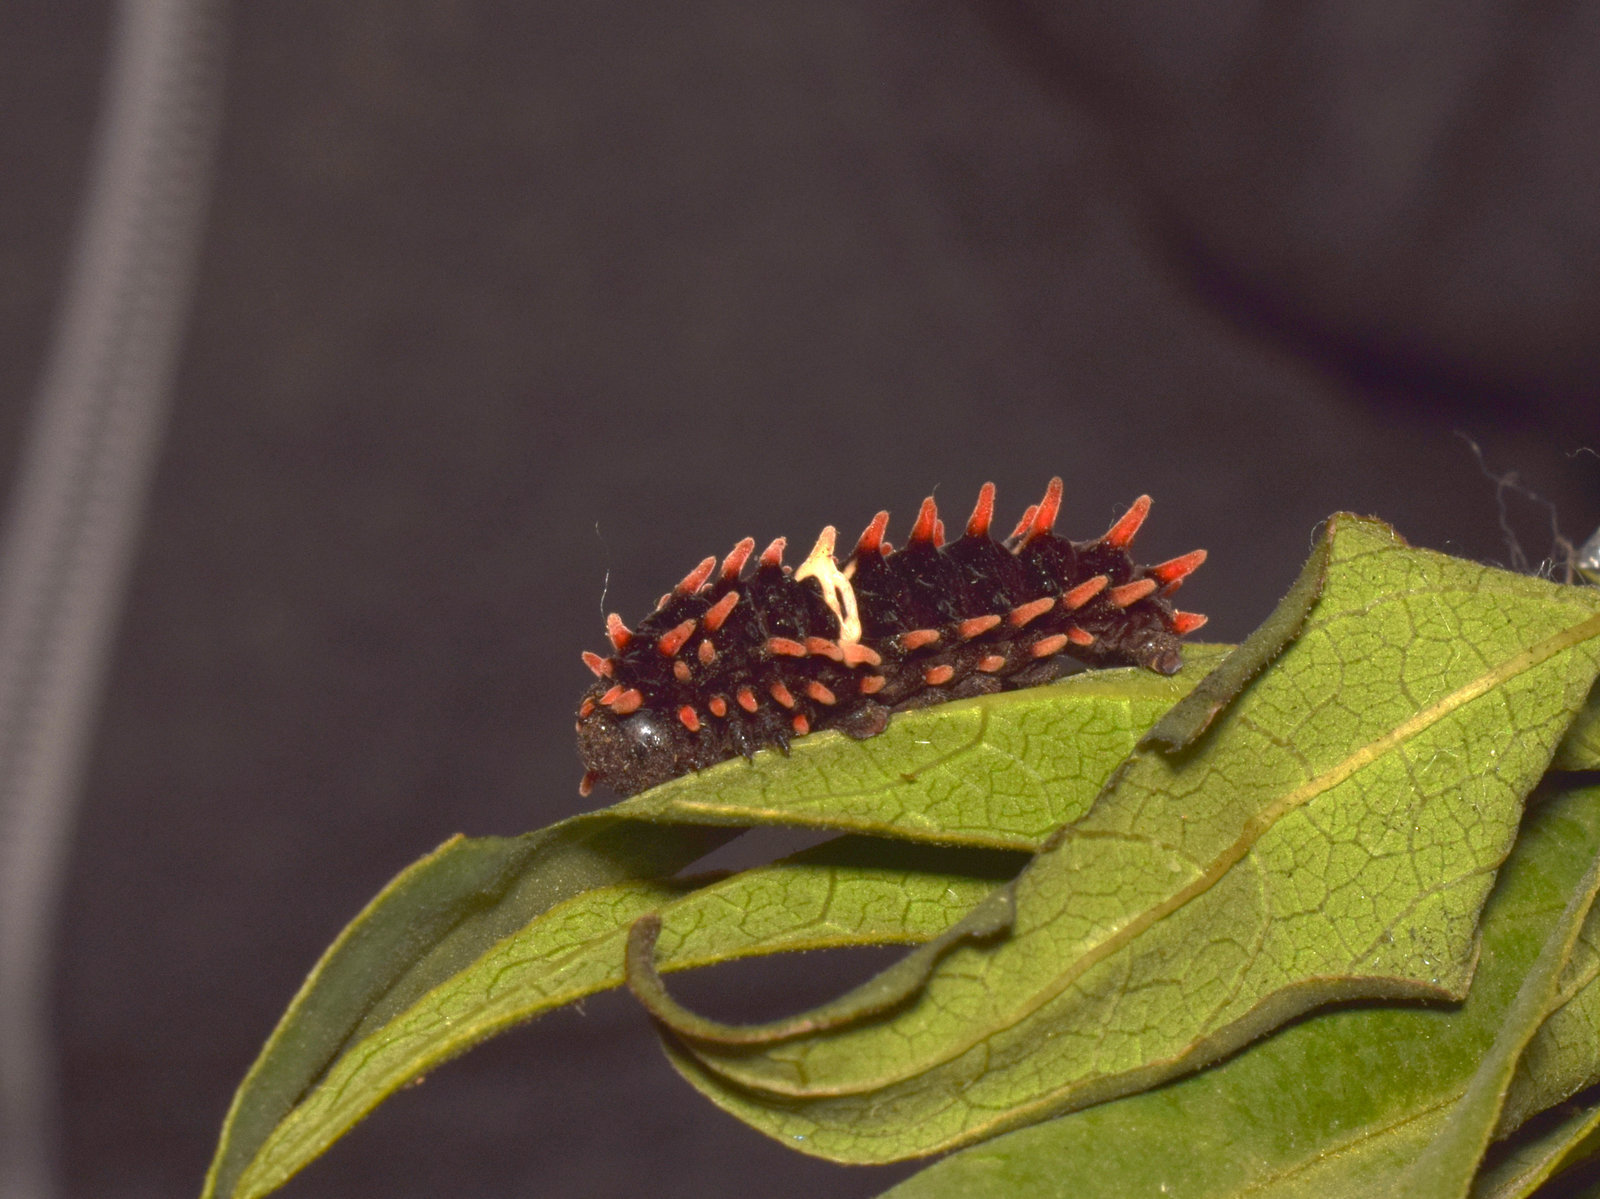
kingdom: Animalia
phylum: Arthropoda
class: Insecta
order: Lepidoptera
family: Papilionidae
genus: Pachliopta
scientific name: Pachliopta aristolochiae
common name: Common rose
